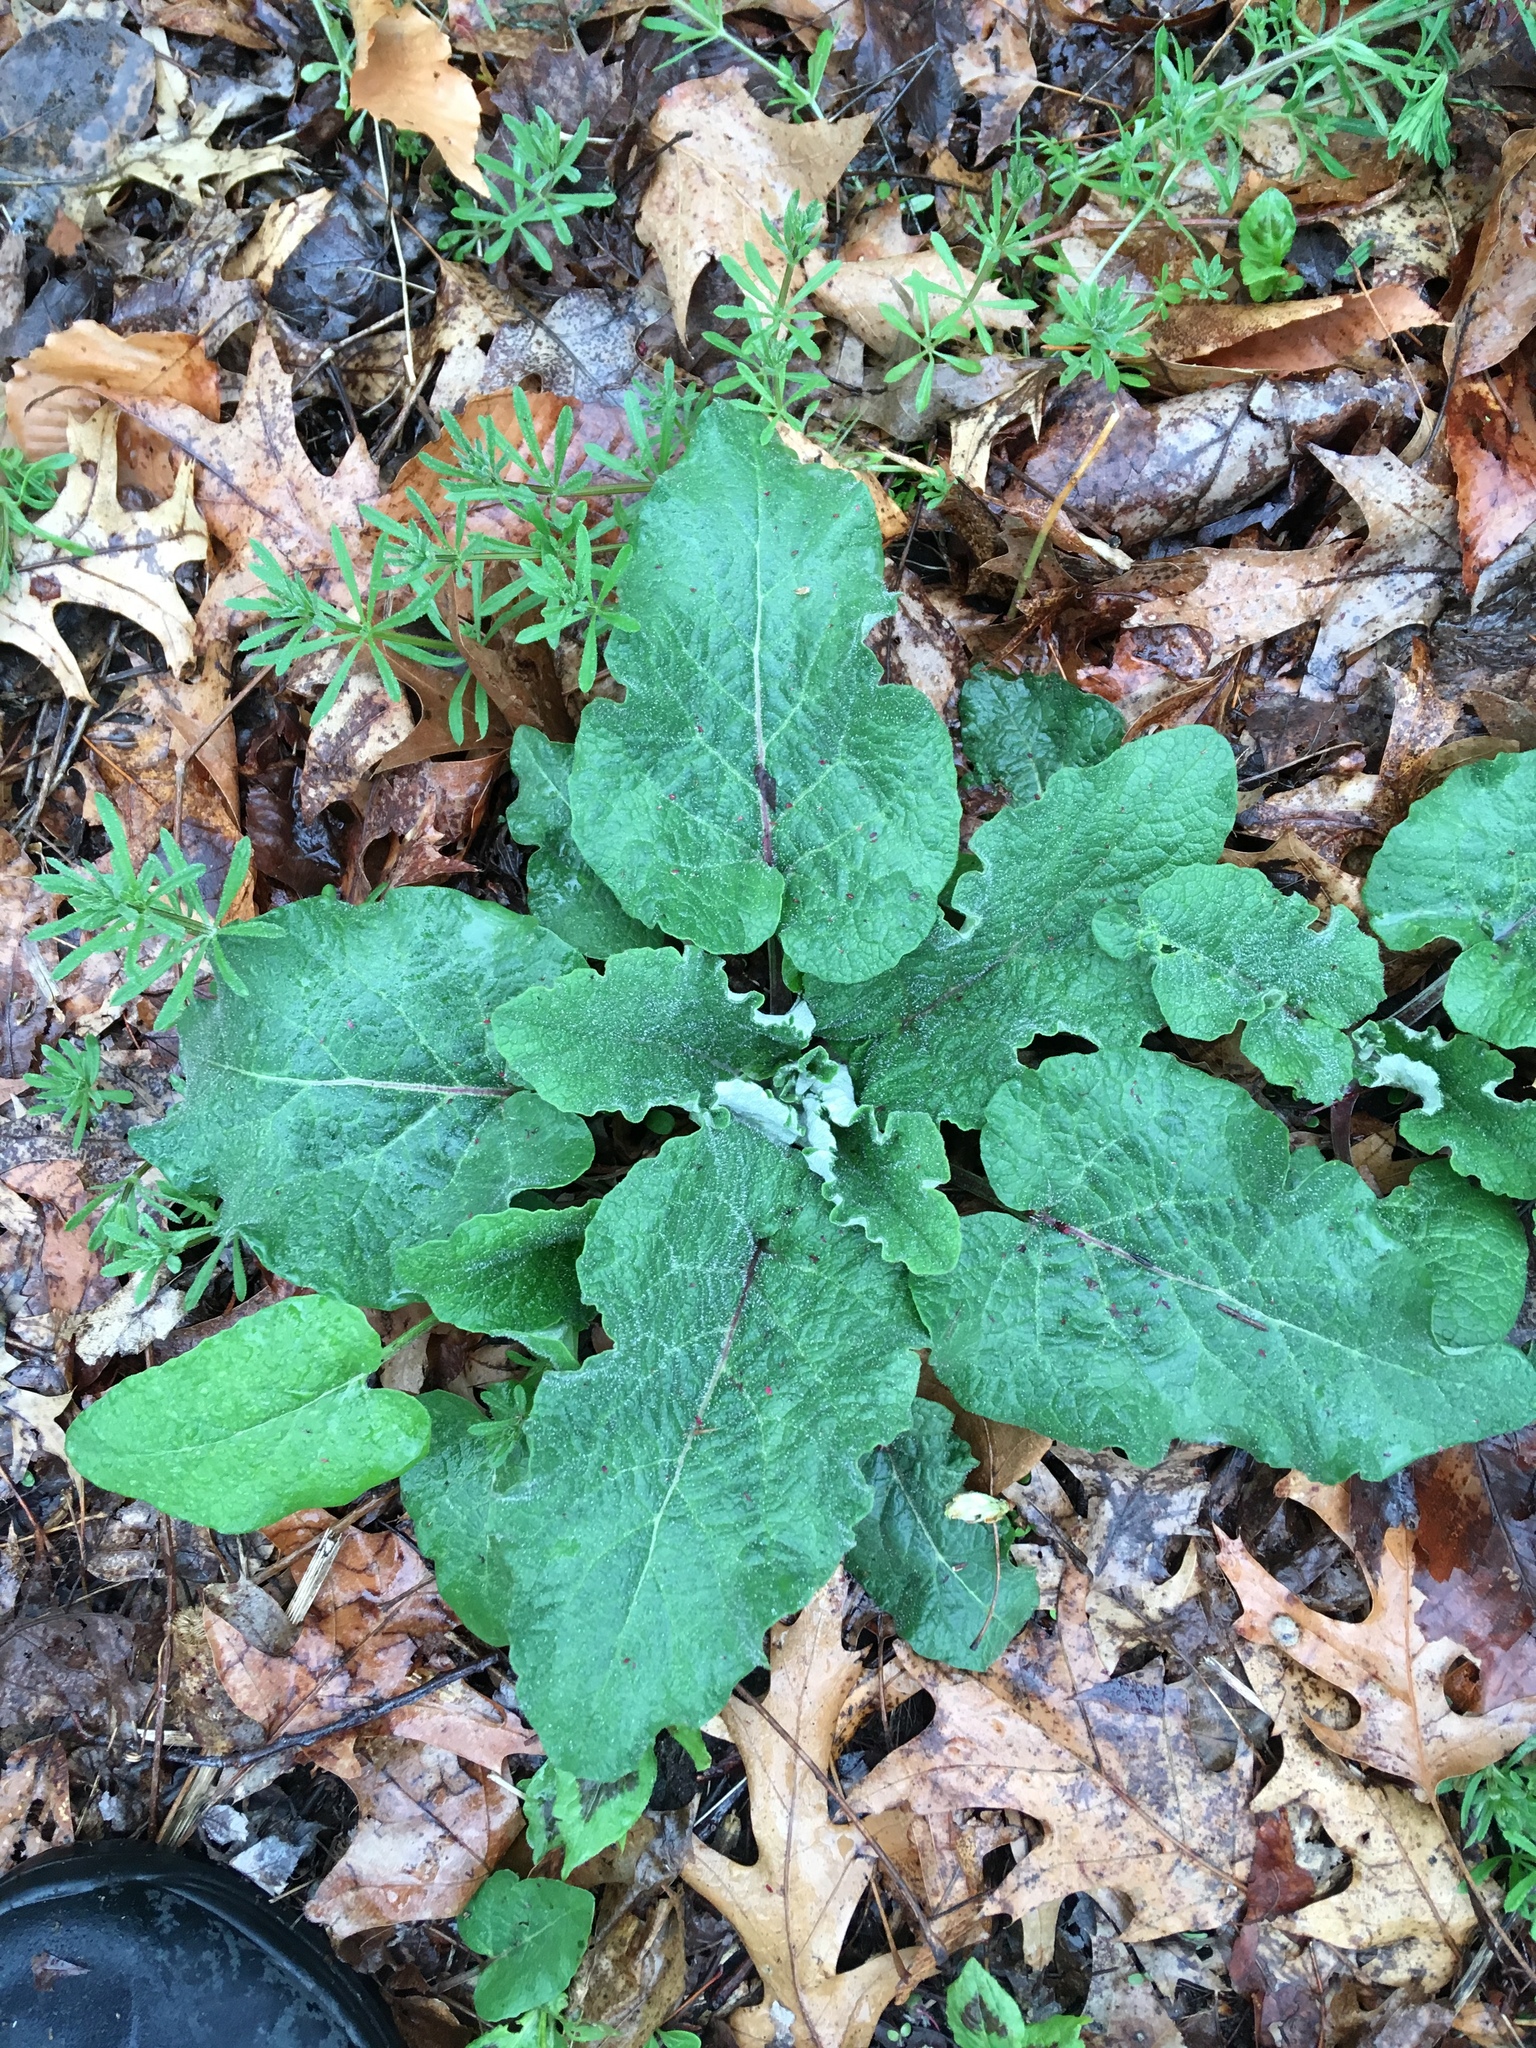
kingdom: Plantae
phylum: Tracheophyta
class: Magnoliopsida
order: Asterales
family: Asteraceae
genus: Arctium
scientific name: Arctium
